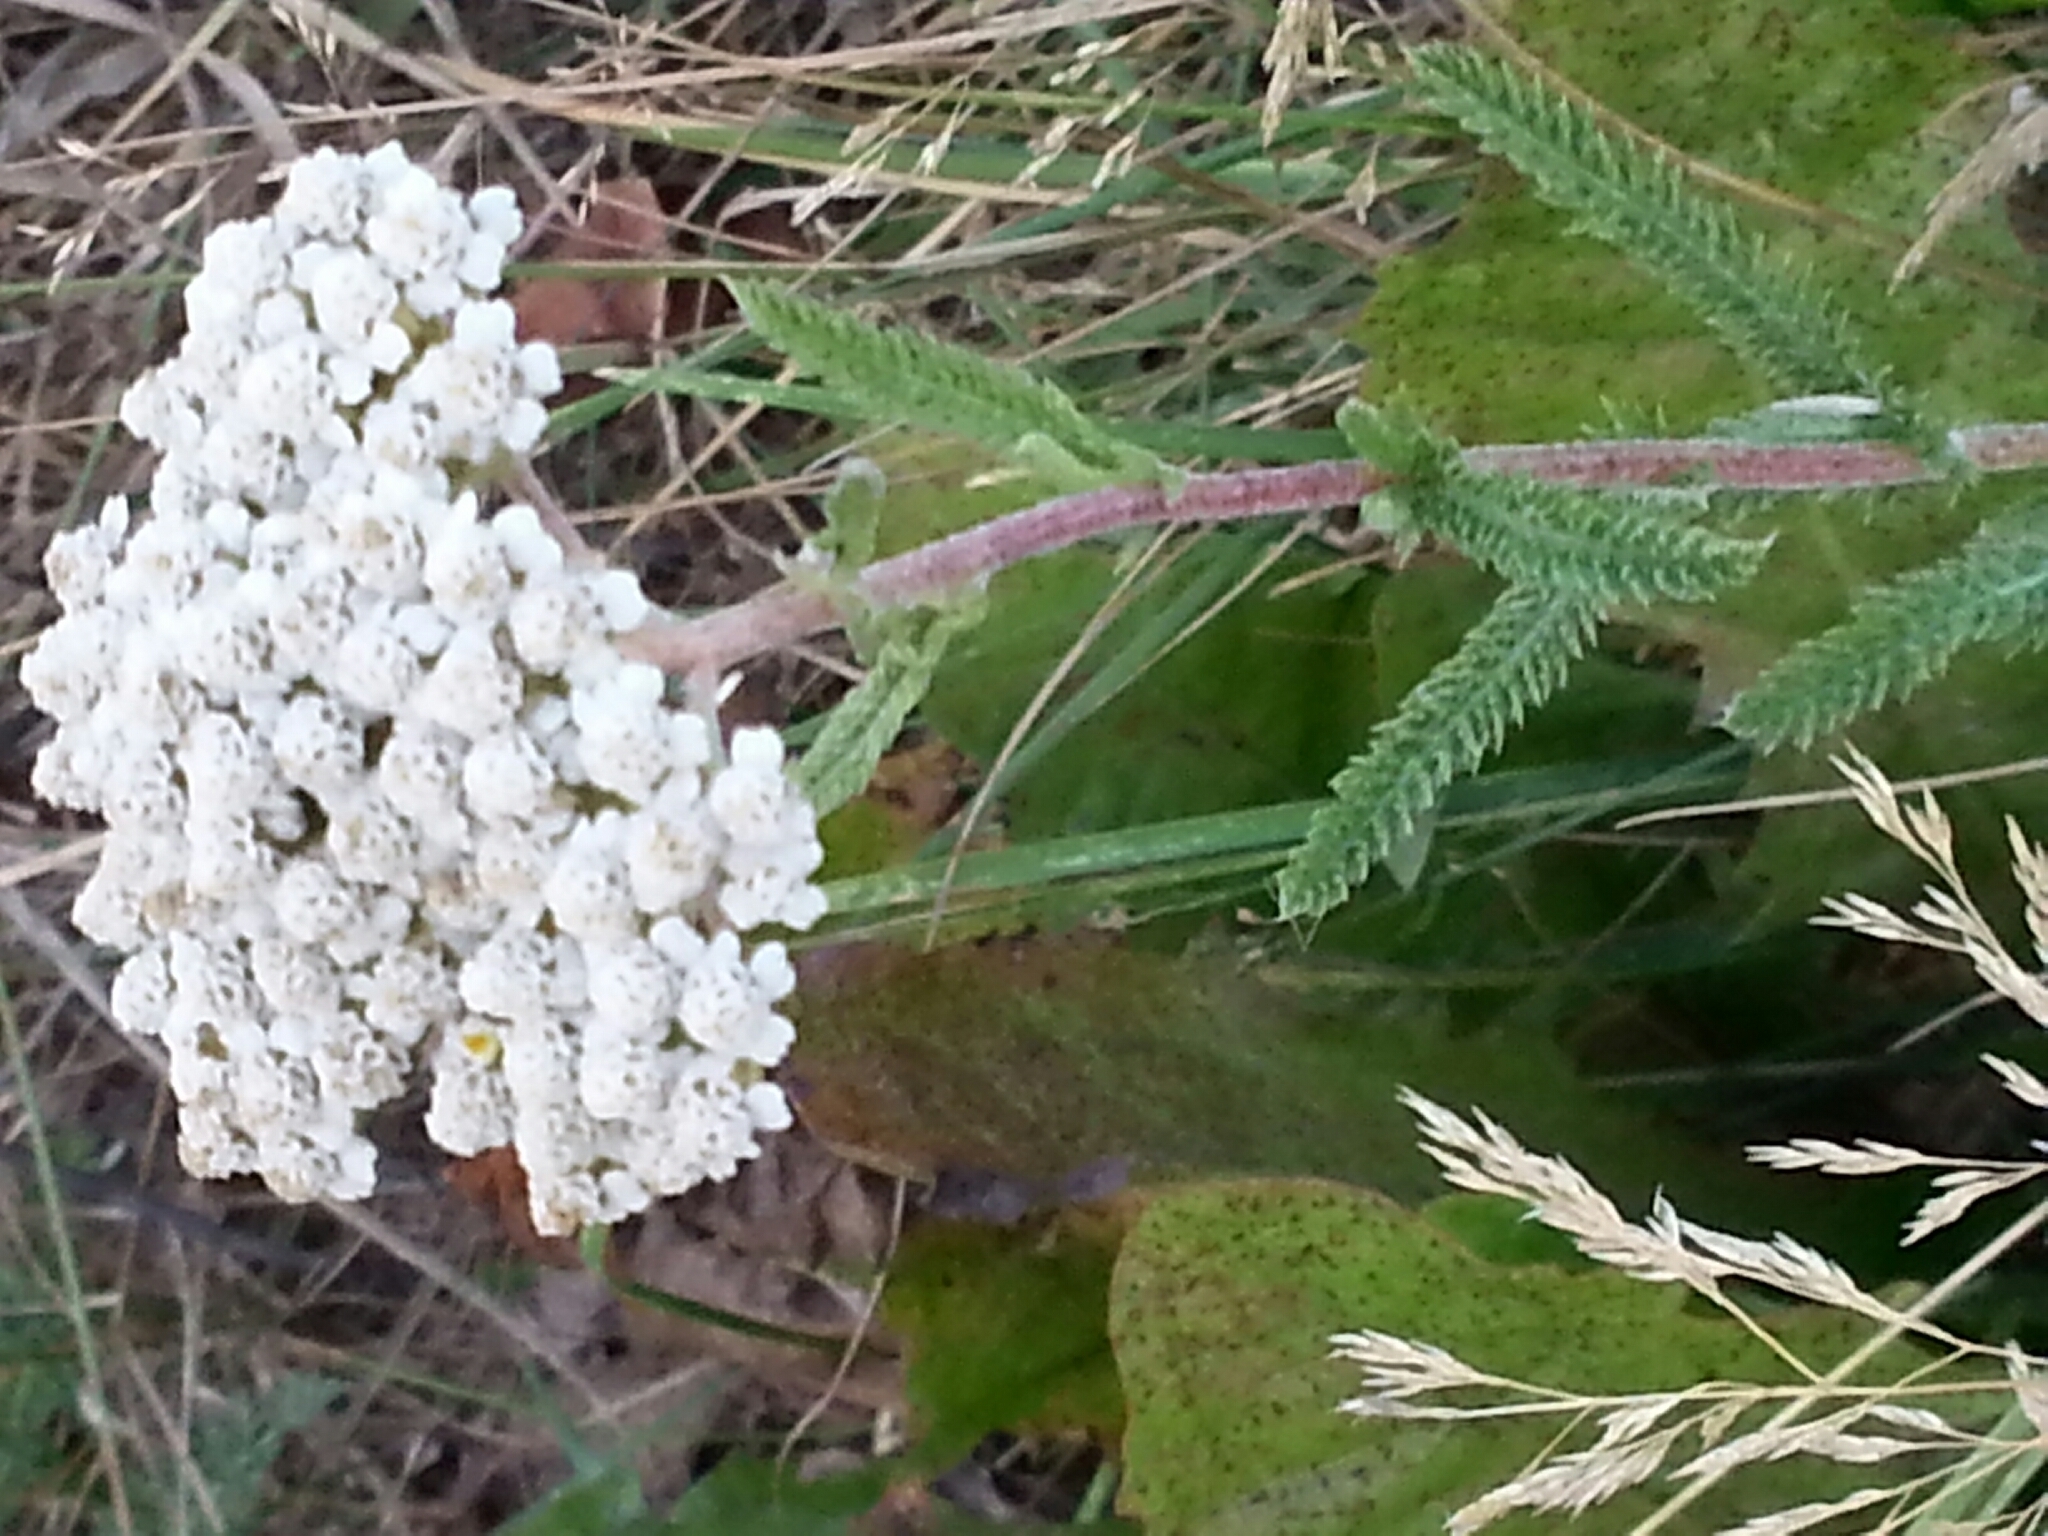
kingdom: Plantae
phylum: Tracheophyta
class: Magnoliopsida
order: Asterales
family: Asteraceae
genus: Achillea
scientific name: Achillea millefolium
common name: Yarrow
